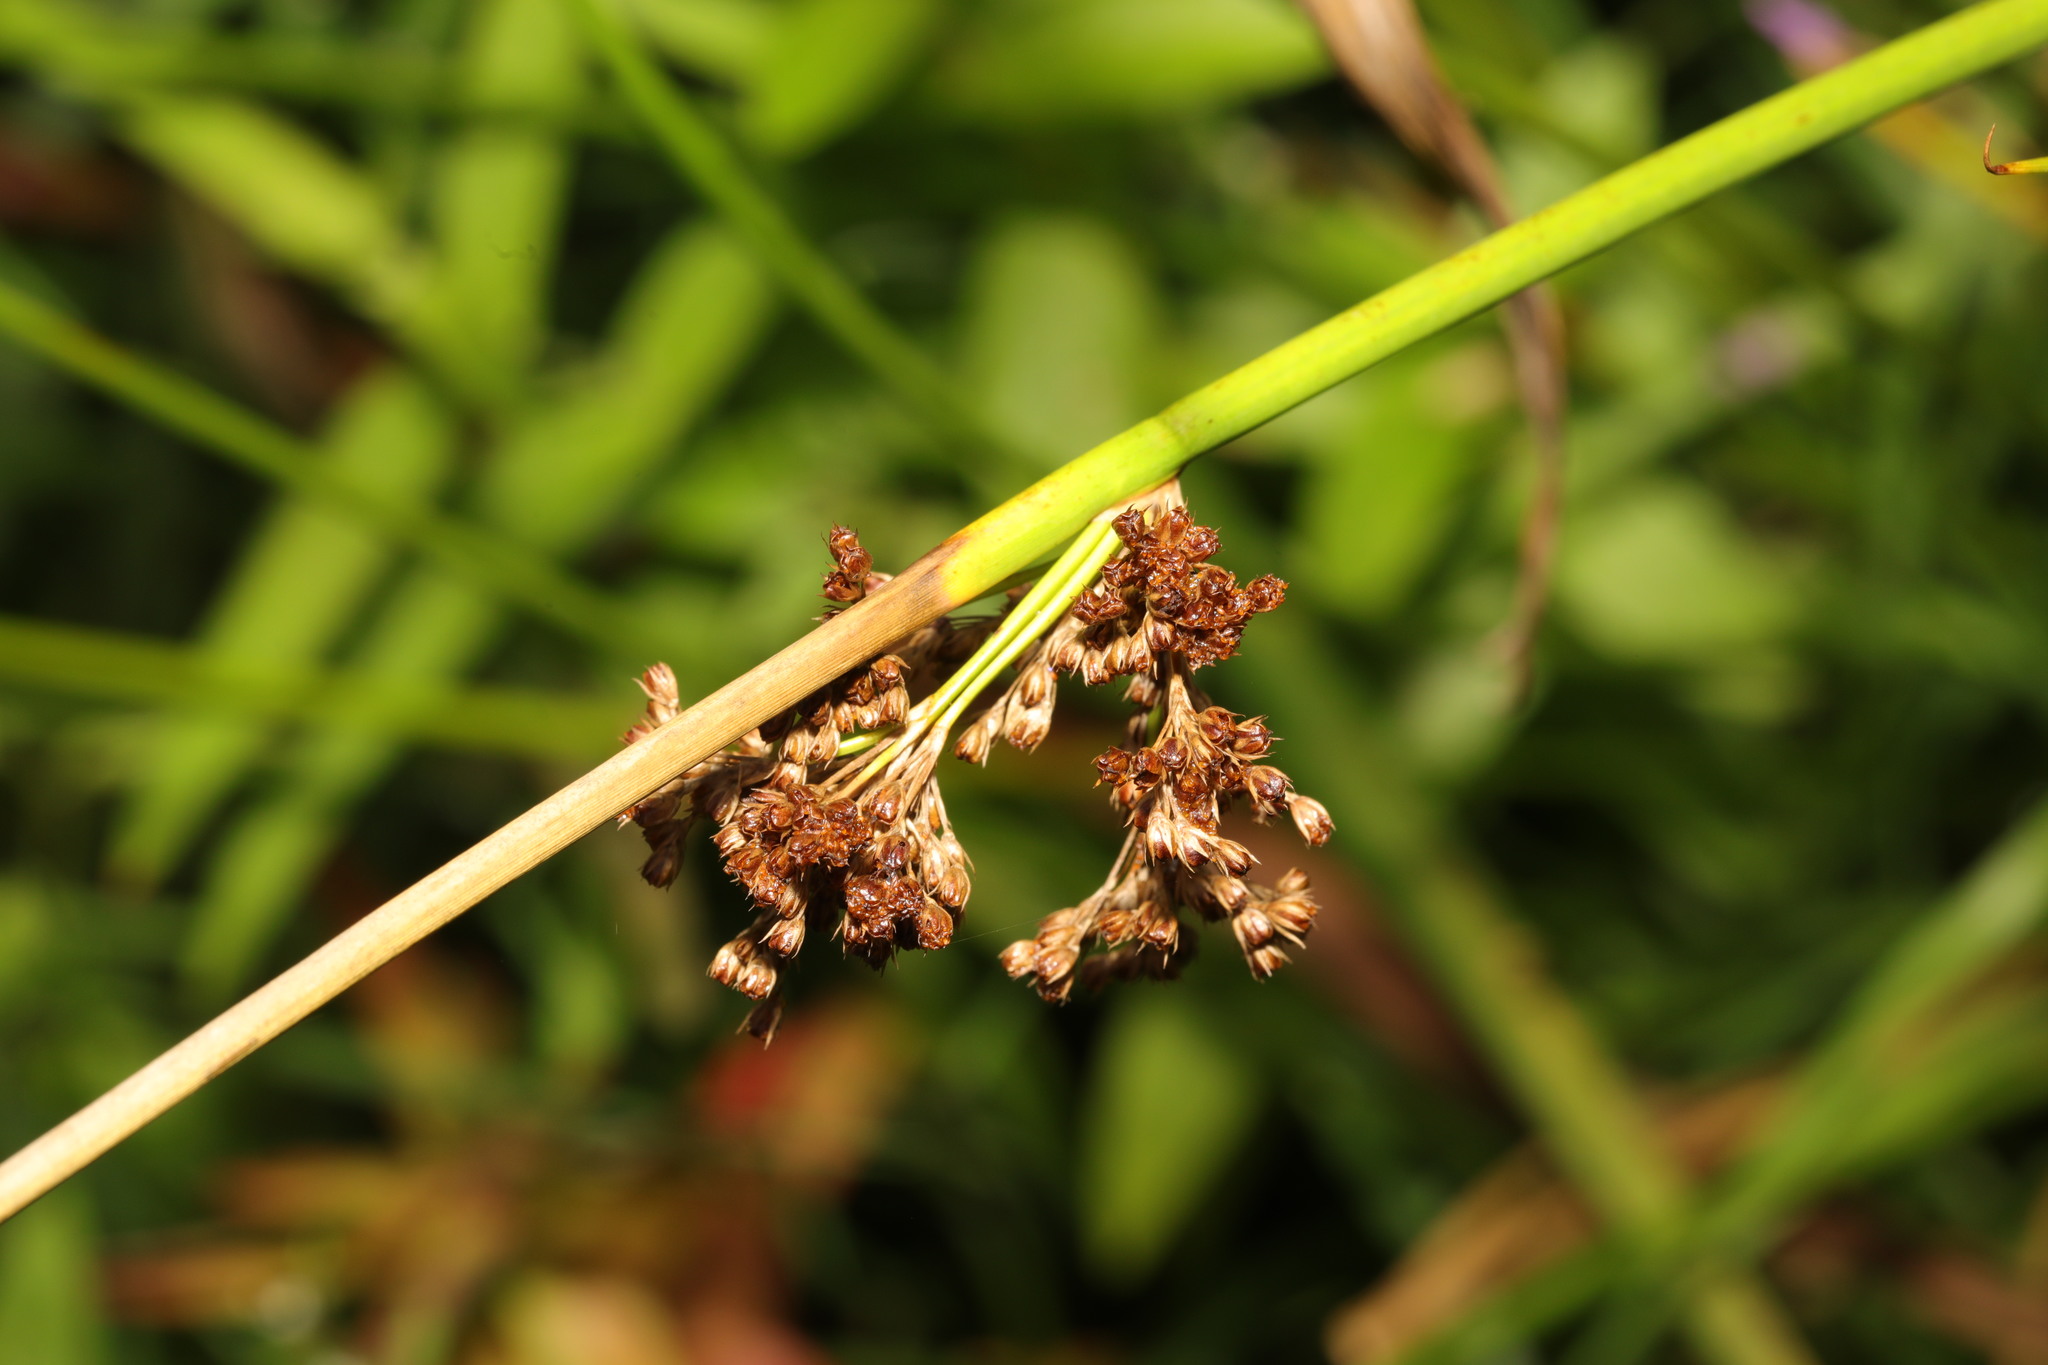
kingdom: Plantae
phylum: Tracheophyta
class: Liliopsida
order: Poales
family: Juncaceae
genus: Juncus
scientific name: Juncus effusus
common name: Soft rush
